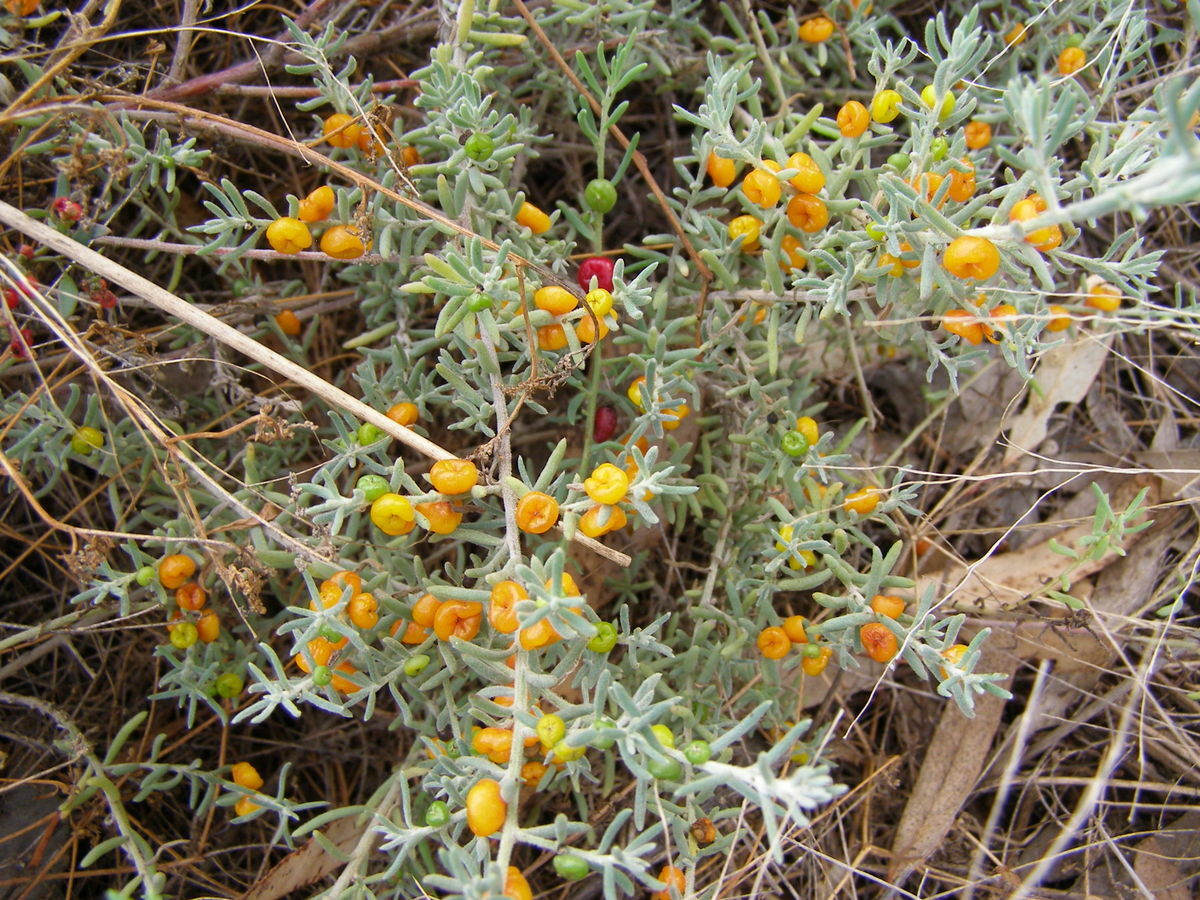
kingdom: Plantae
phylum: Tracheophyta
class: Magnoliopsida
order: Caryophyllales
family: Amaranthaceae
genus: Enchylaena
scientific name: Enchylaena tomentosa
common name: Ruby saltbush
